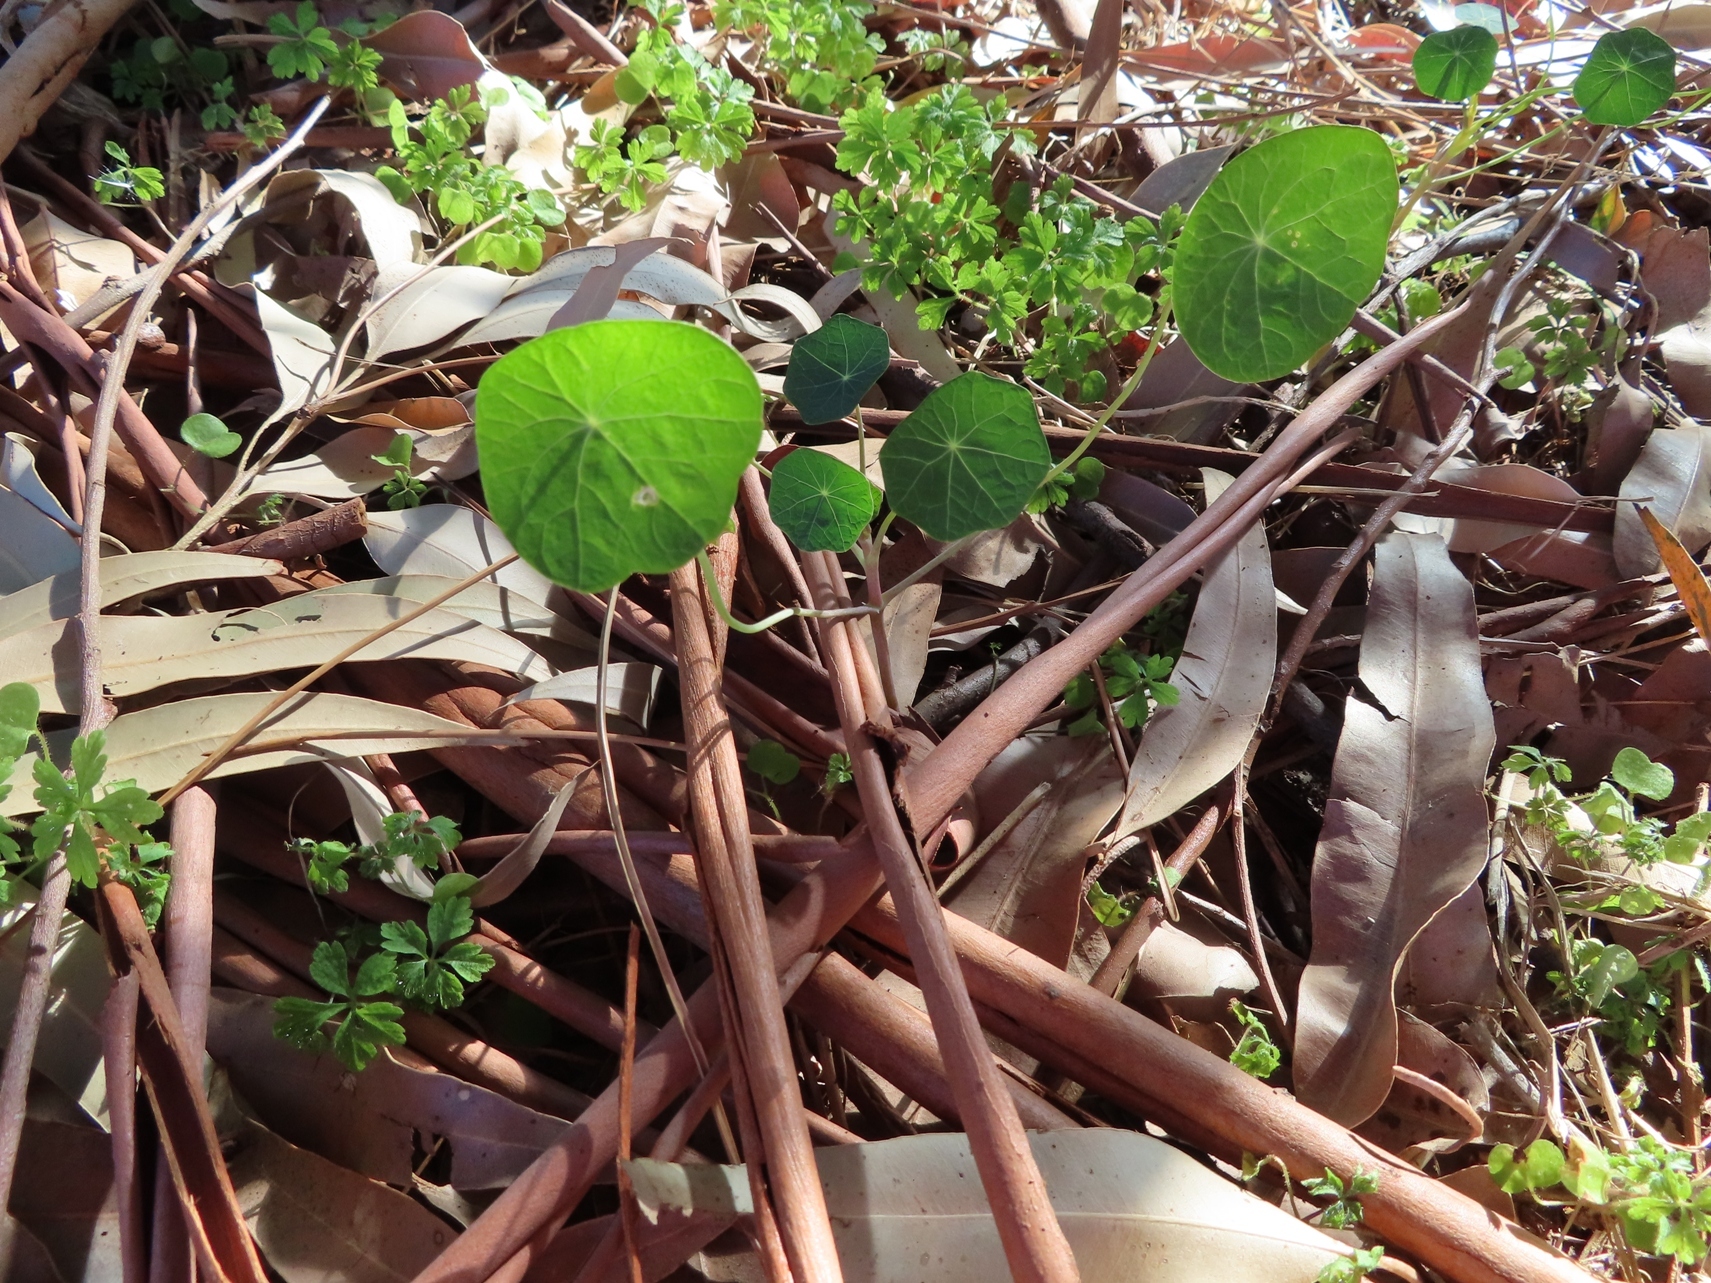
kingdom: Plantae
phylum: Tracheophyta
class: Magnoliopsida
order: Brassicales
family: Tropaeolaceae
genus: Tropaeolum
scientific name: Tropaeolum majus
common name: Nasturtium
